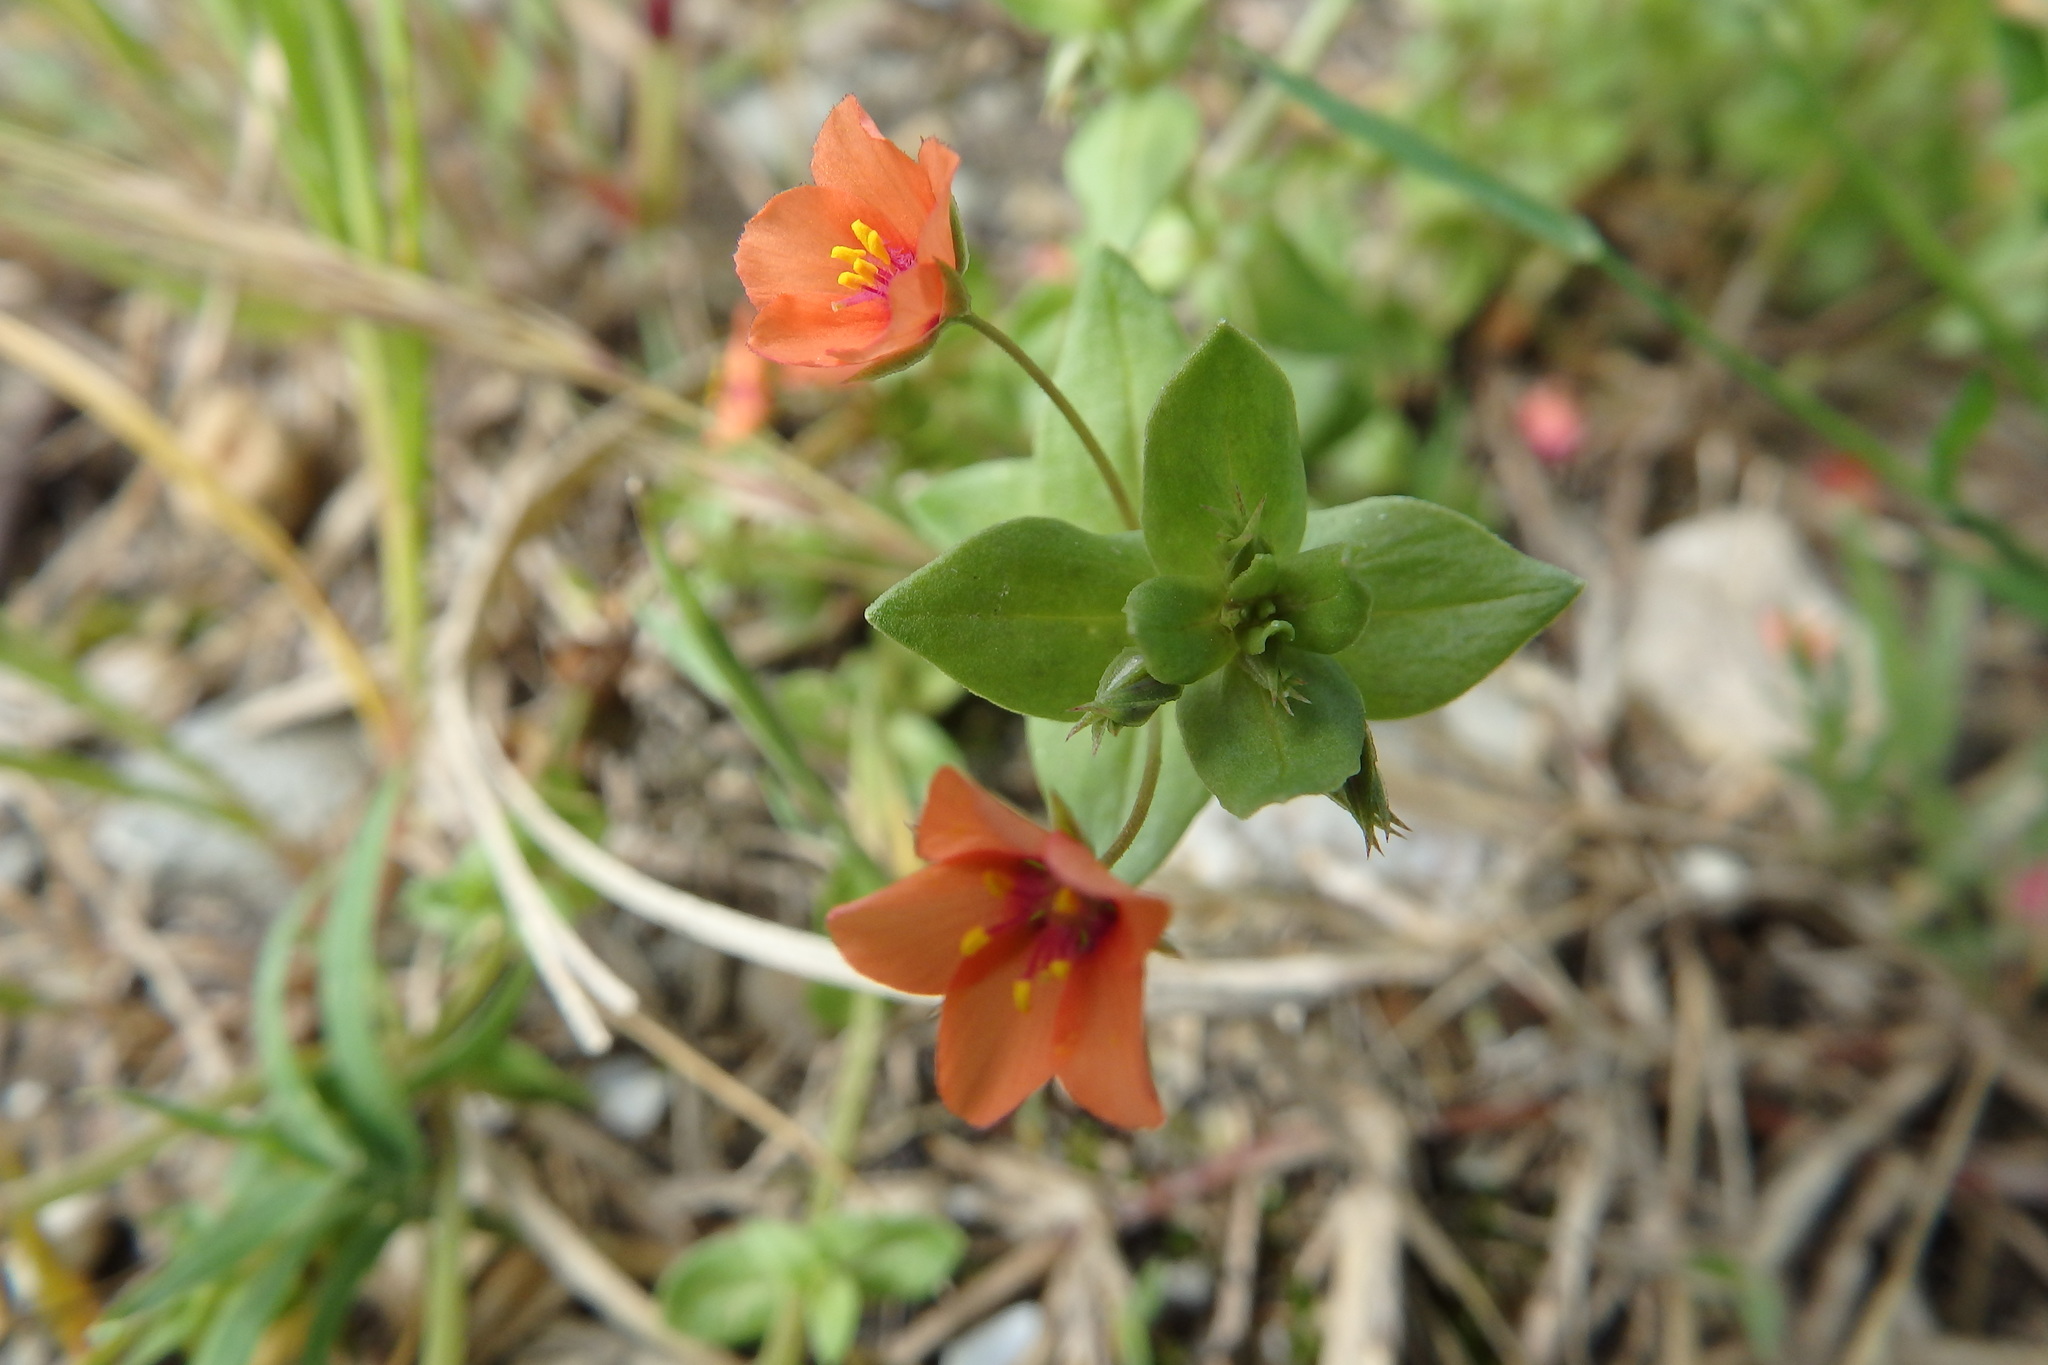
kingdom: Plantae
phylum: Tracheophyta
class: Magnoliopsida
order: Ericales
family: Primulaceae
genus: Lysimachia
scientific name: Lysimachia arvensis
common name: Scarlet pimpernel
